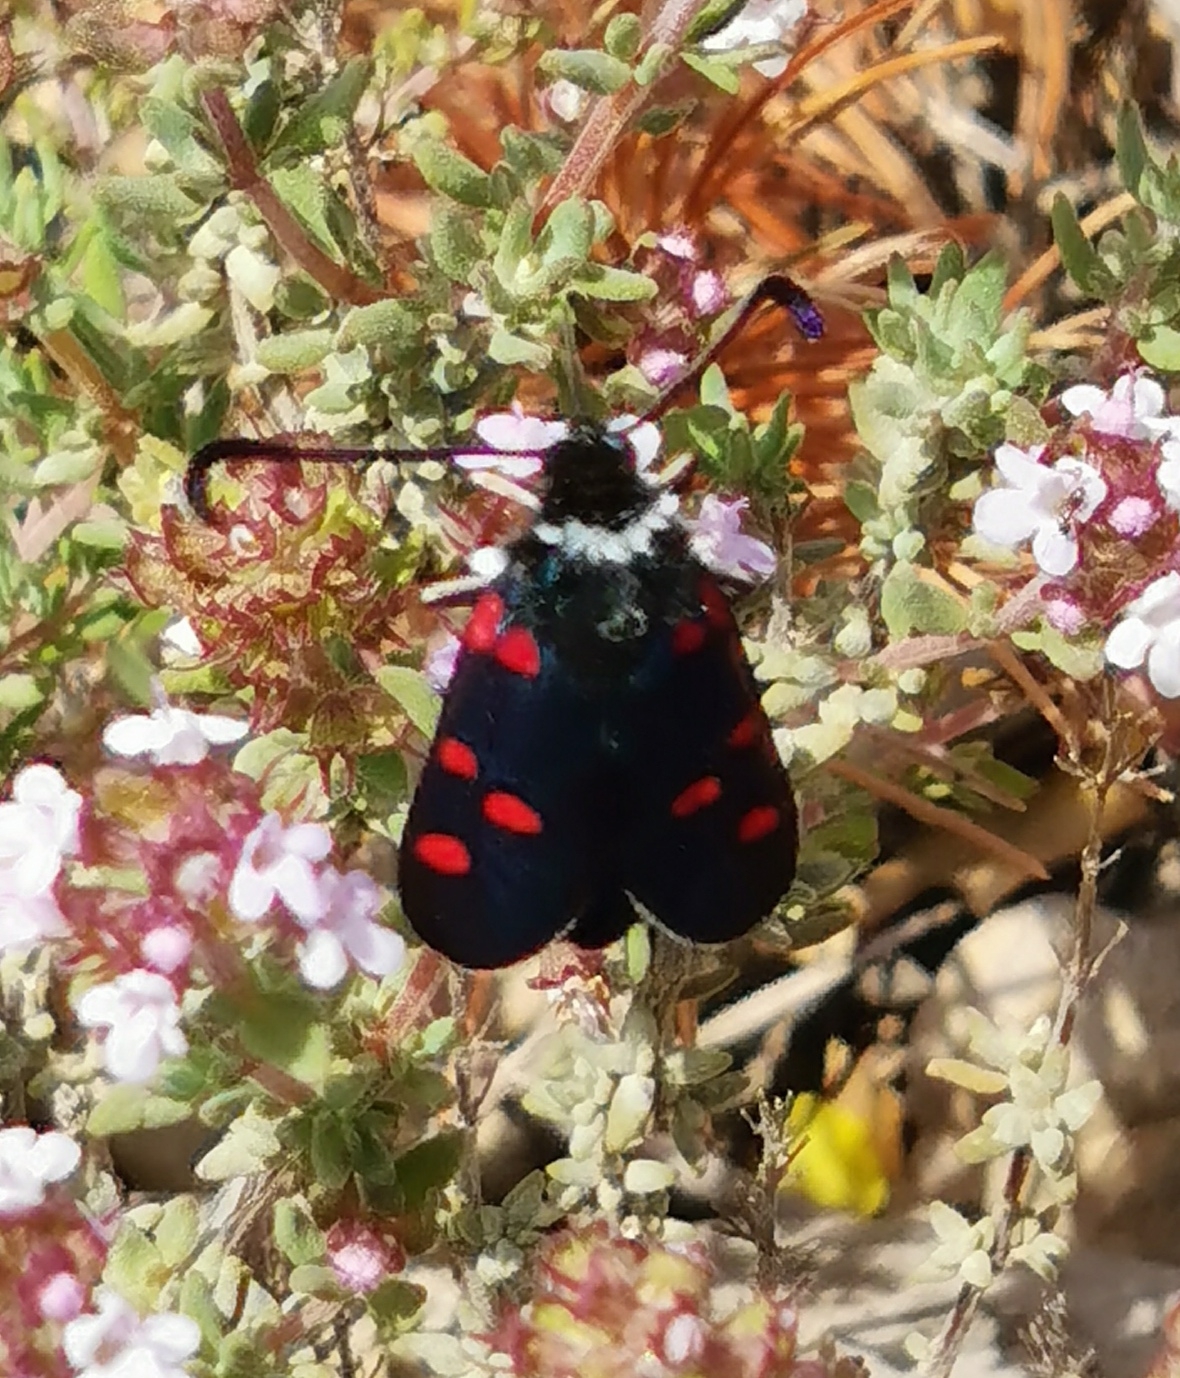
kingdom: Animalia
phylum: Arthropoda
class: Insecta
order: Lepidoptera
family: Zygaenidae
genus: Zygaena
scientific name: Zygaena lavandulae
